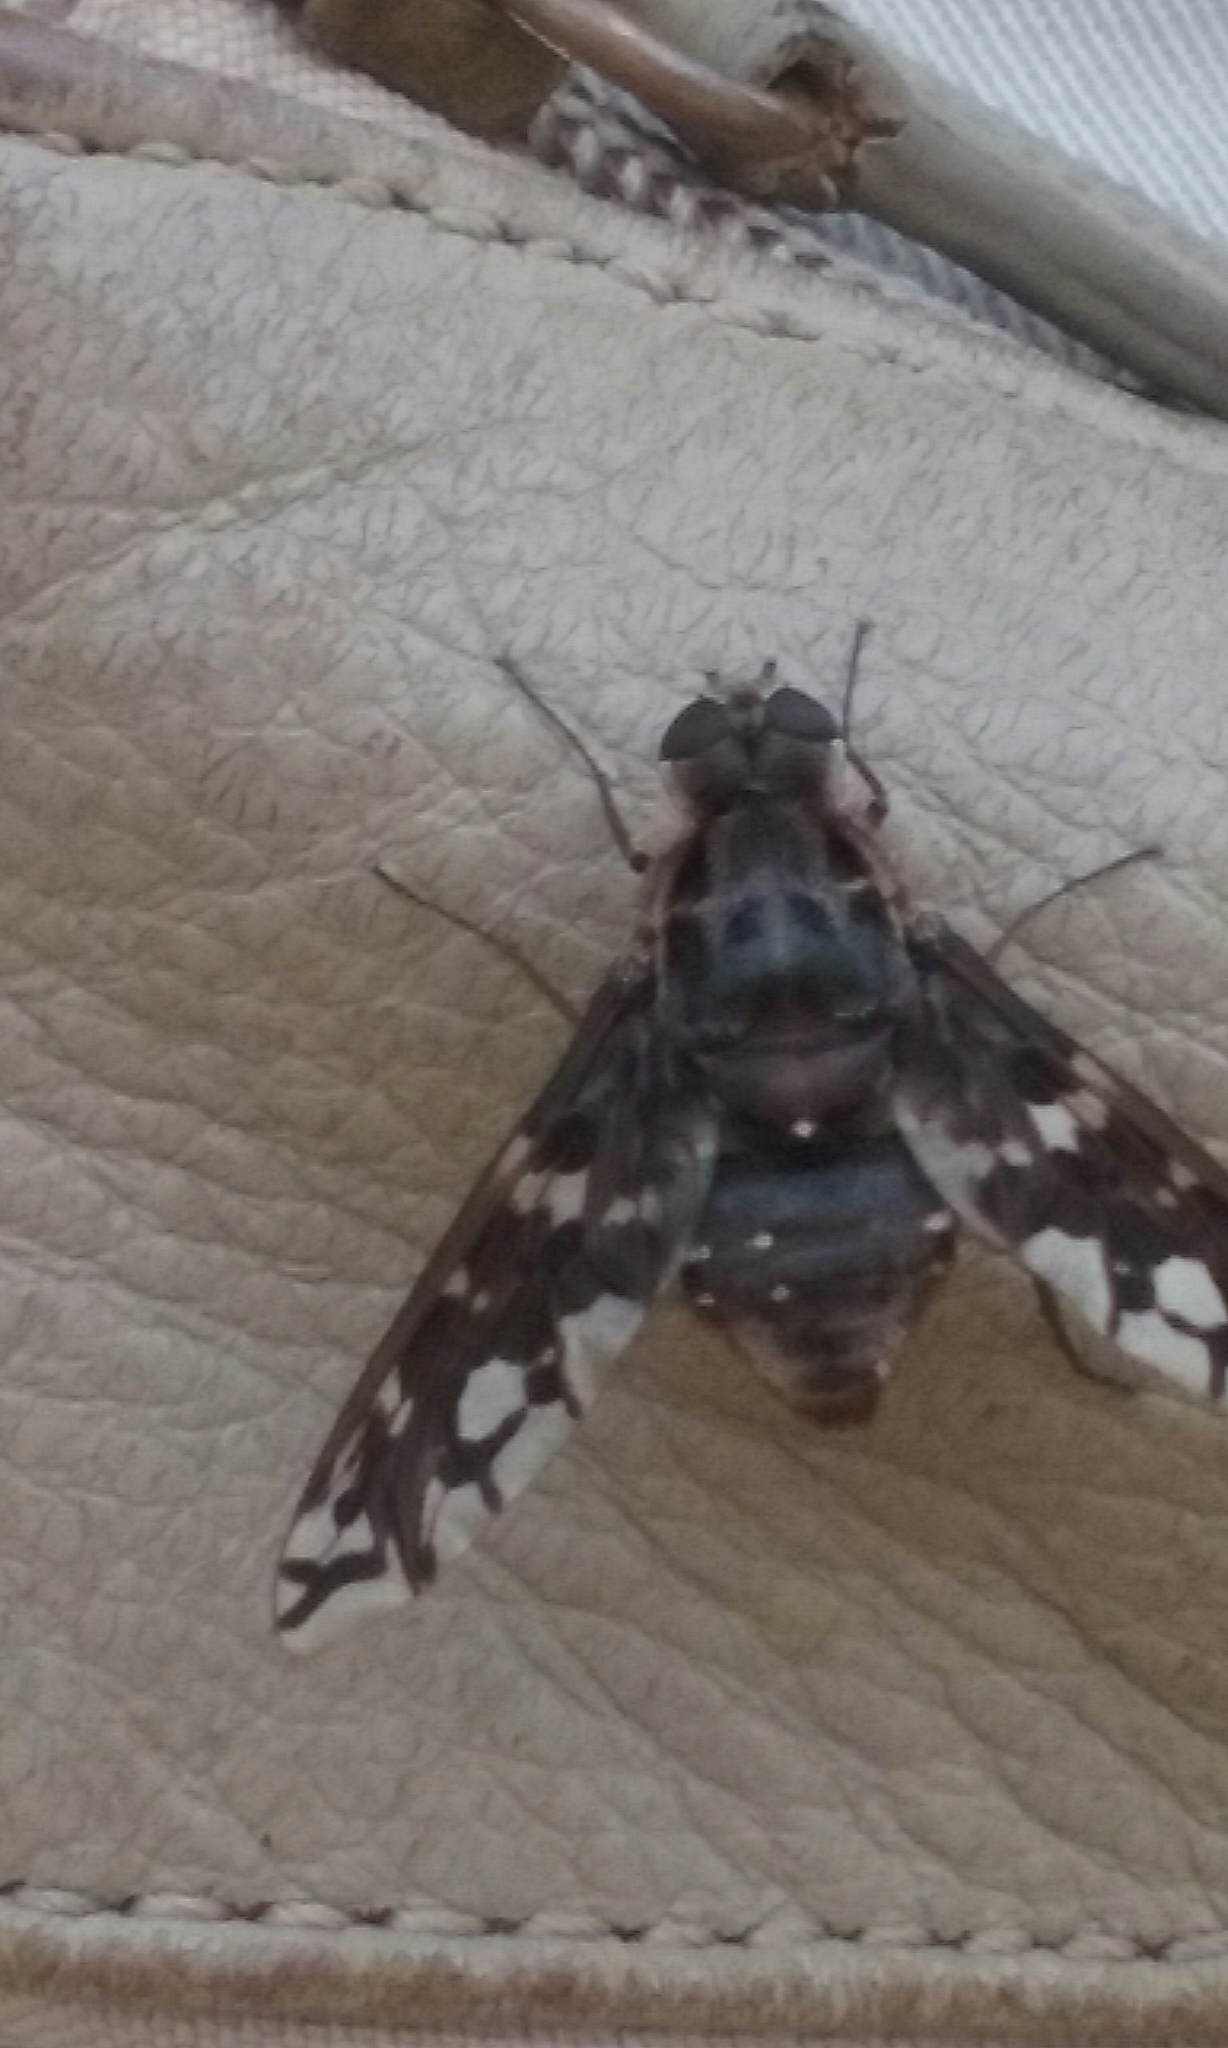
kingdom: Animalia
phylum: Arthropoda
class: Insecta
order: Diptera
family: Bombyliidae
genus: Xenox
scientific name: Xenox tigrinus
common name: Tiger bee fly
